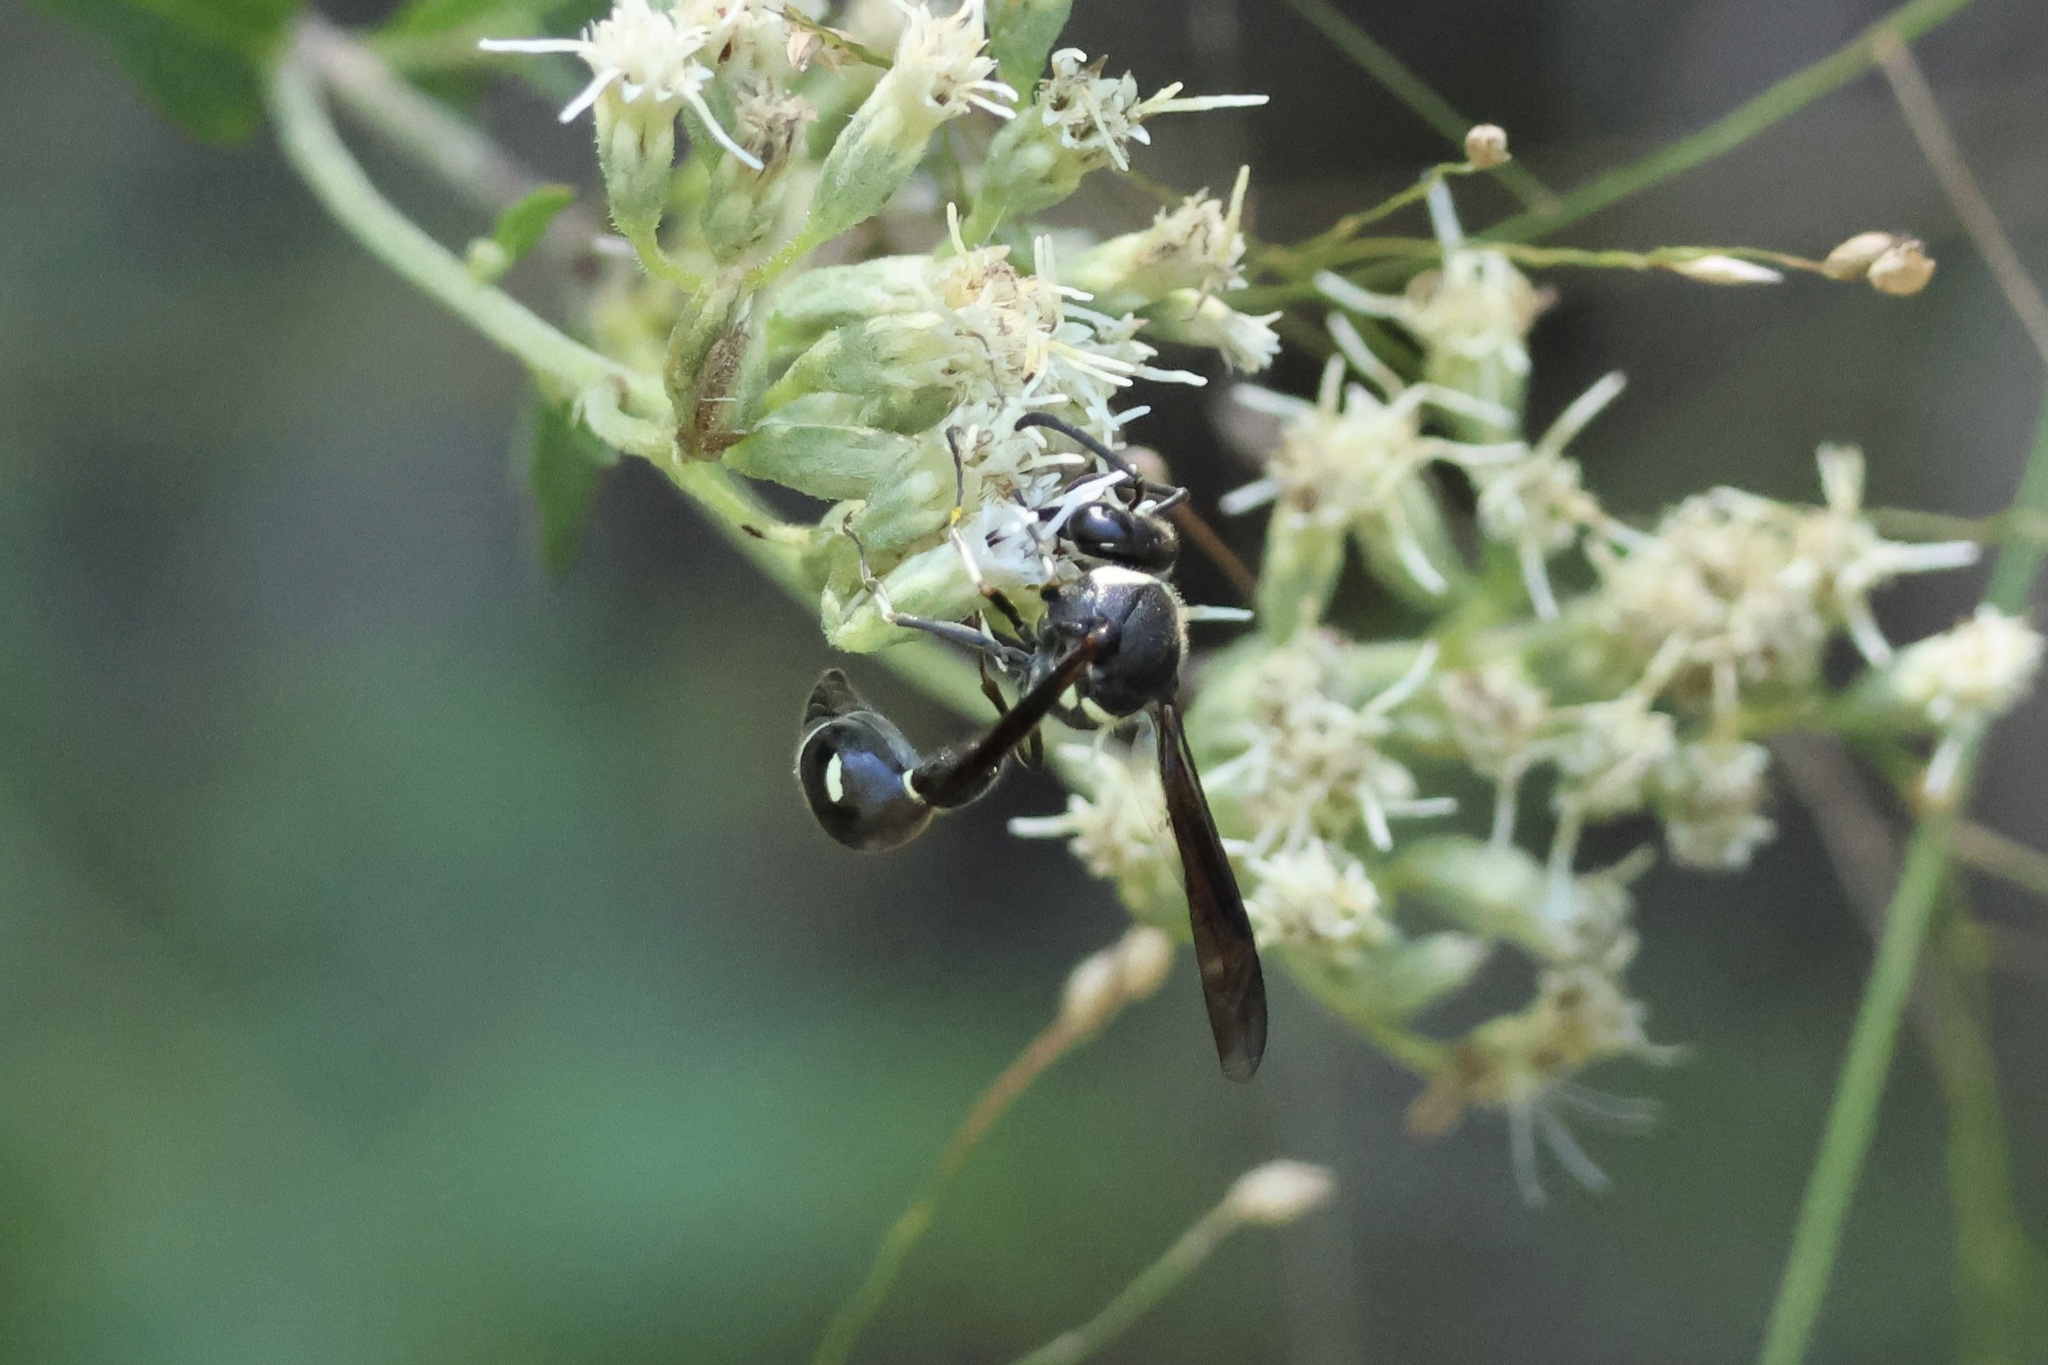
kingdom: Animalia
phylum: Arthropoda
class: Insecta
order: Hymenoptera
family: Vespidae
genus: Eumenes
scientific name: Eumenes fraternus
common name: Fraternal potter wasp
